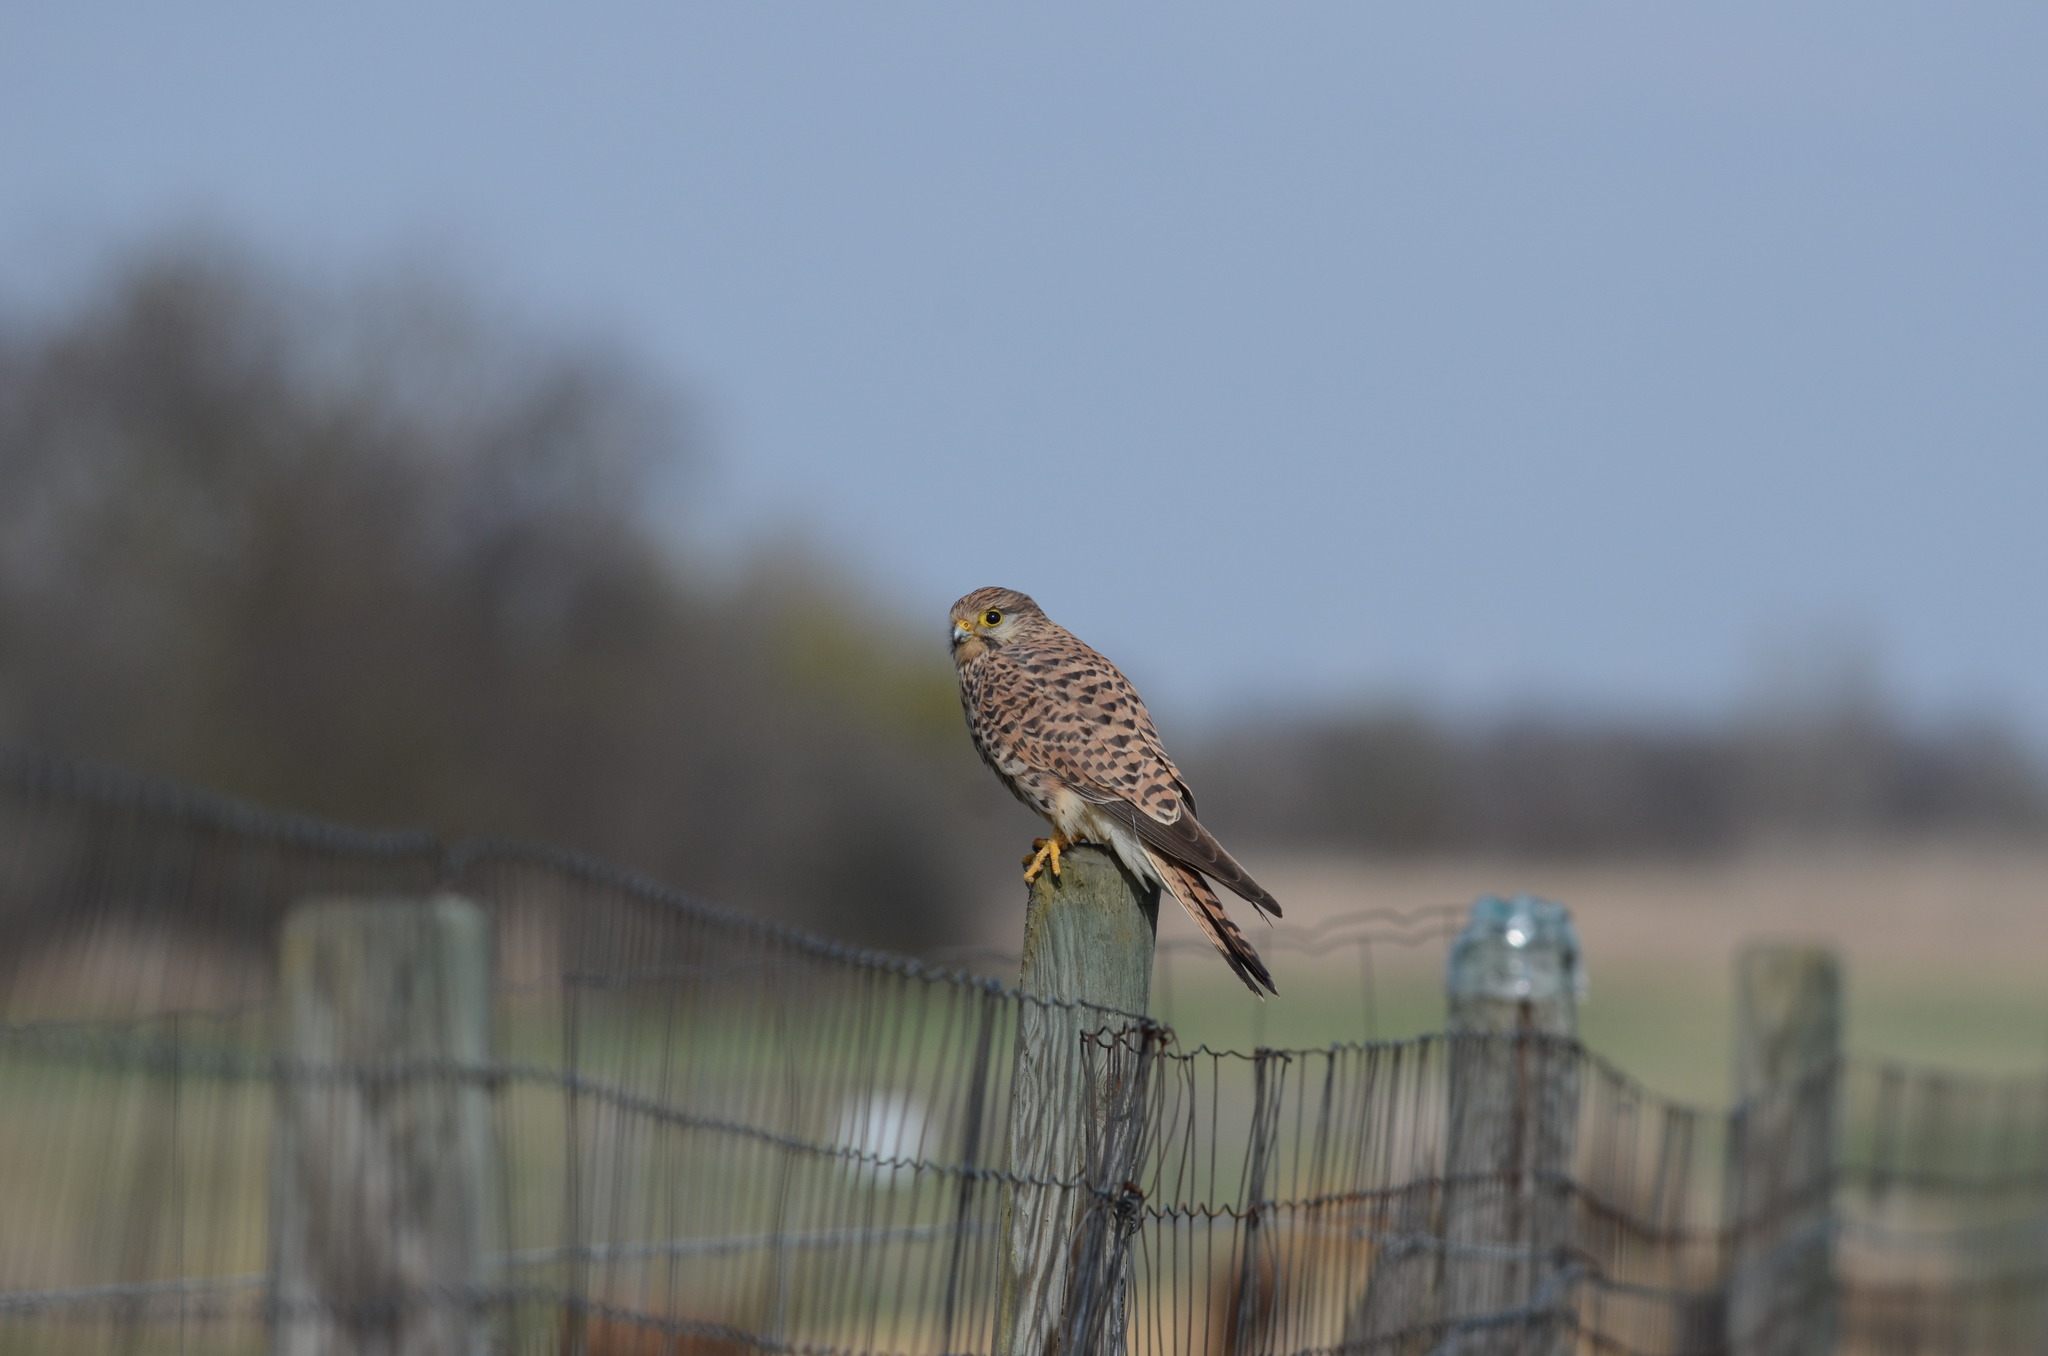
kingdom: Animalia
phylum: Chordata
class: Aves
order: Falconiformes
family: Falconidae
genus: Falco
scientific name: Falco tinnunculus
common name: Common kestrel
